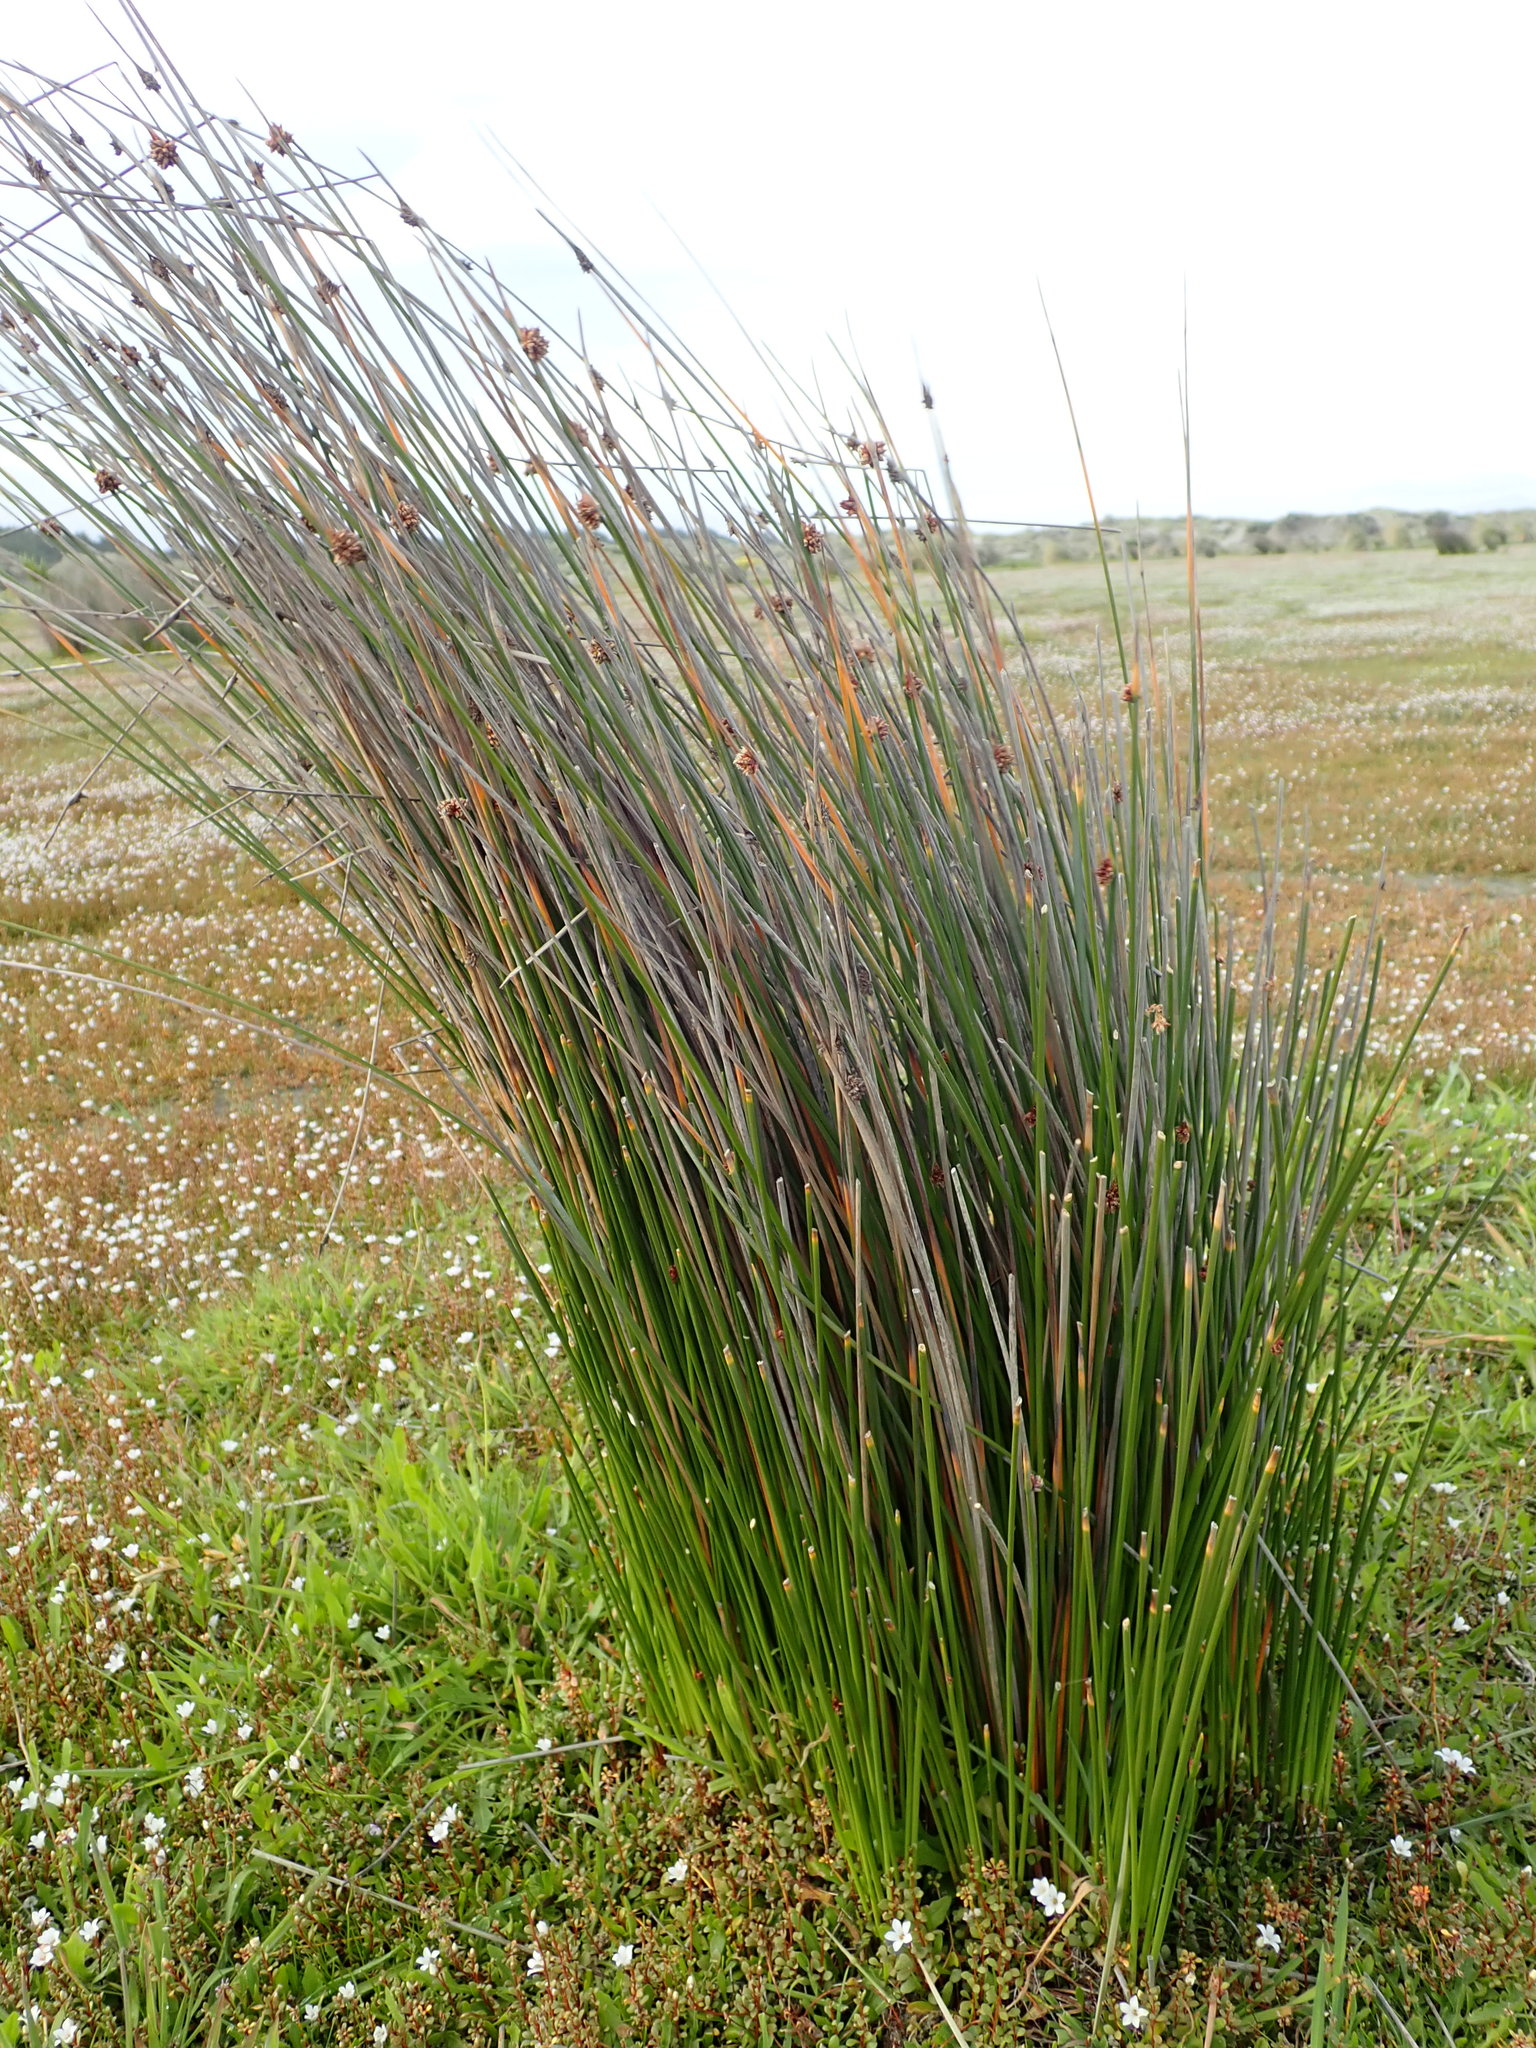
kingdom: Plantae
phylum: Tracheophyta
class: Liliopsida
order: Poales
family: Cyperaceae
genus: Ficinia
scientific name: Ficinia nodosa
